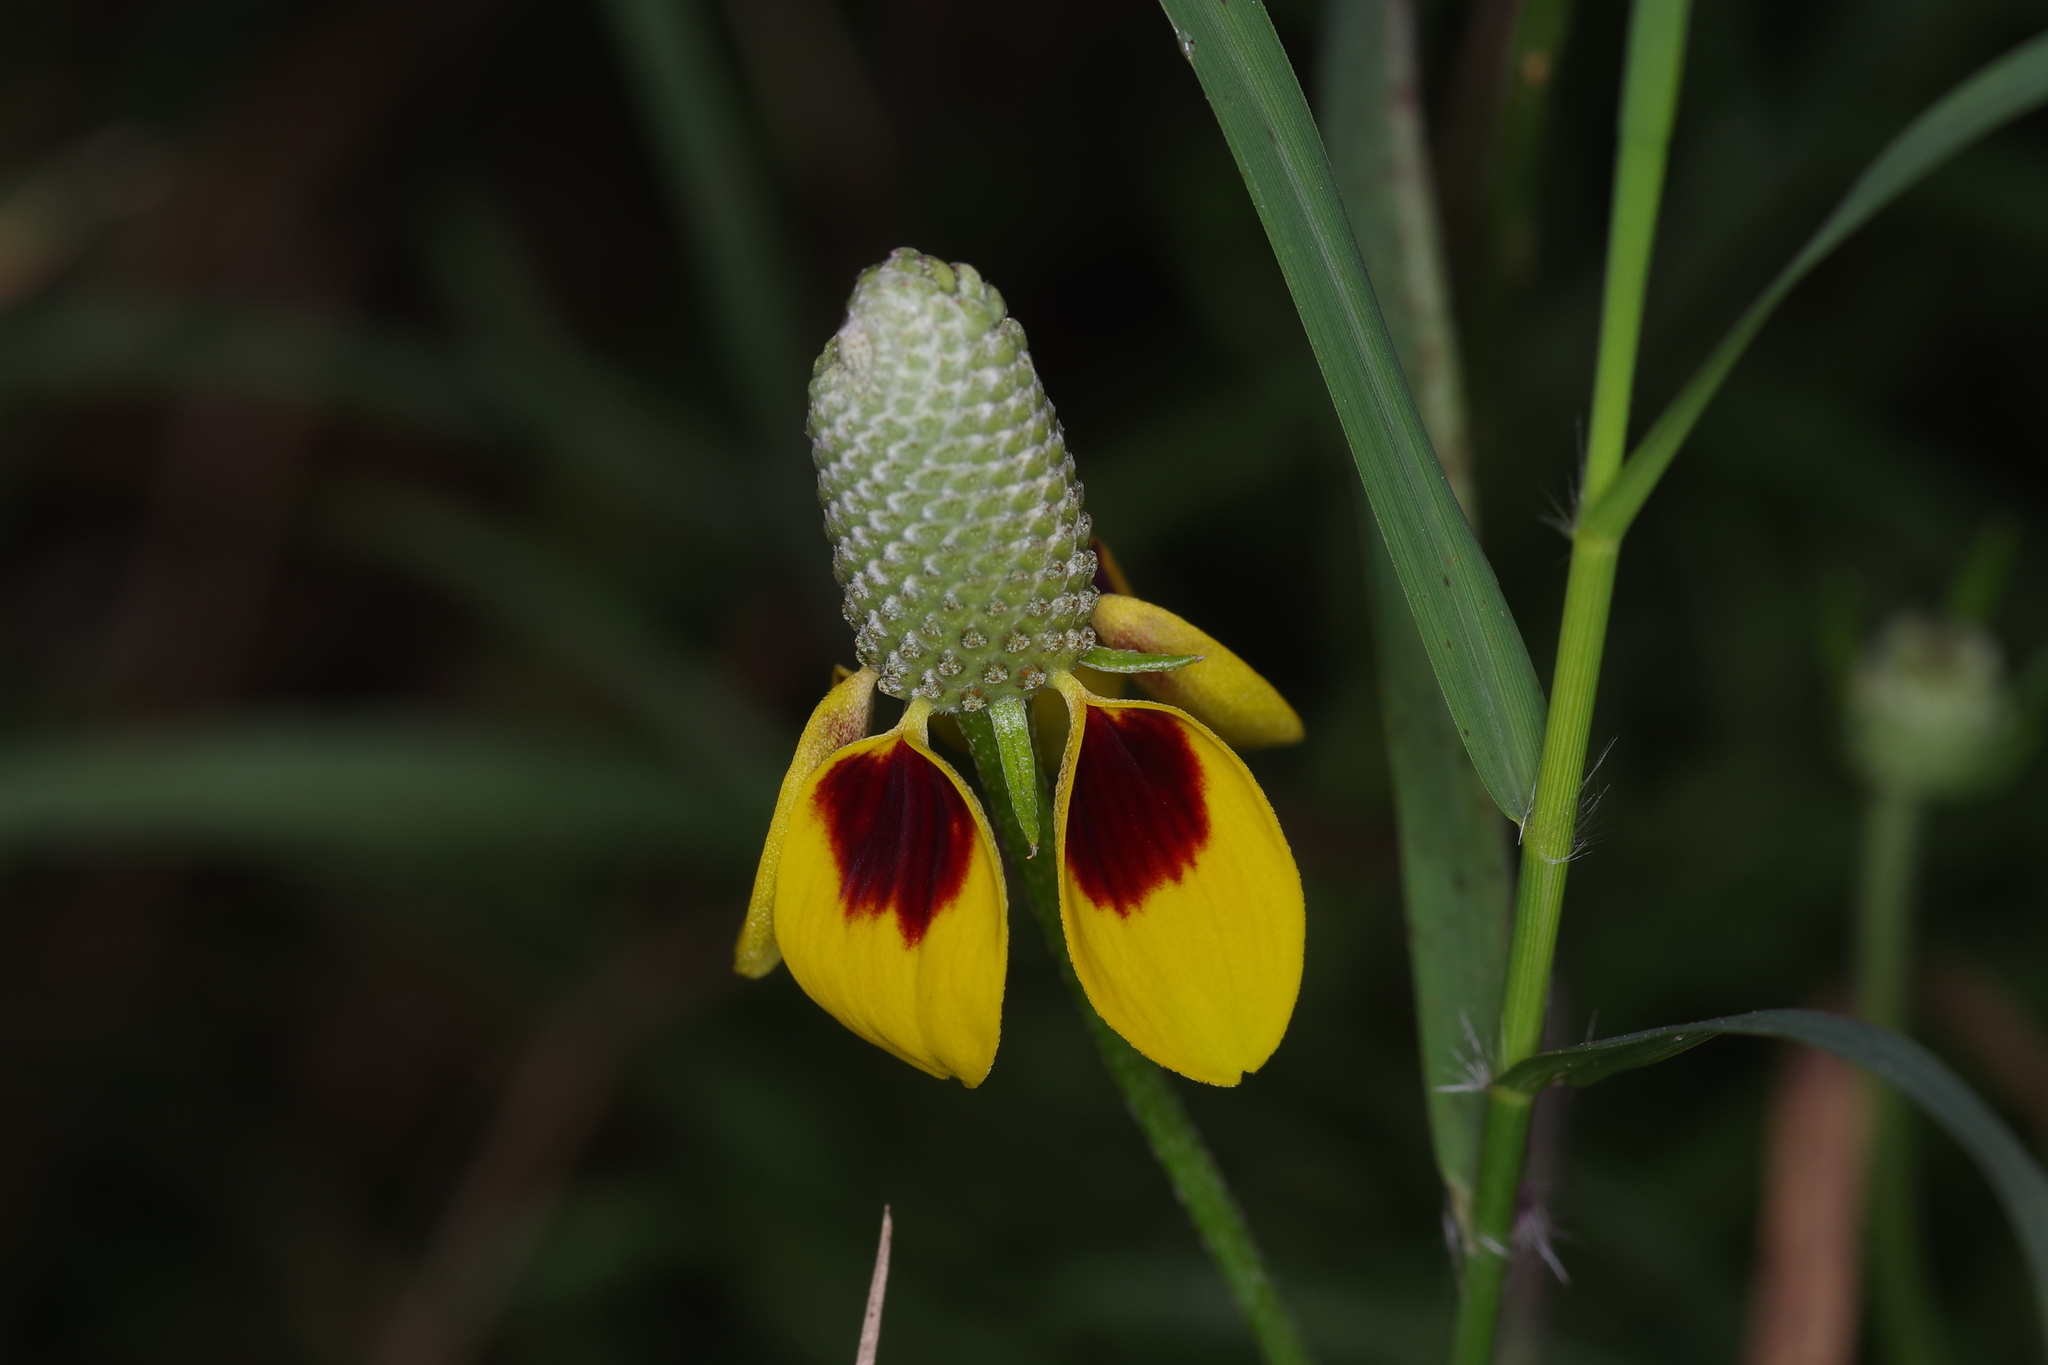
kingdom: Plantae
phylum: Tracheophyta
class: Magnoliopsida
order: Asterales
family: Asteraceae
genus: Ratibida
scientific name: Ratibida columnifera
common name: Prairie coneflower
